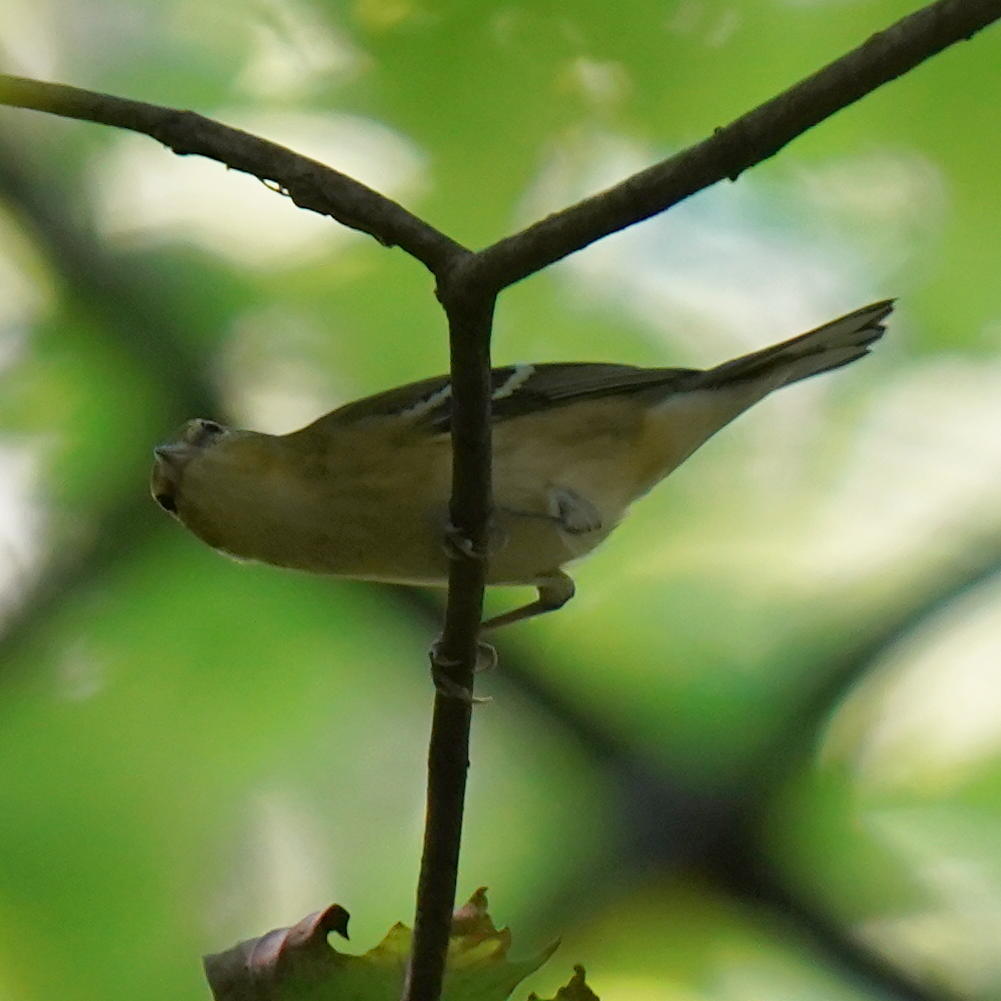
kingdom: Animalia
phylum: Chordata
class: Aves
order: Passeriformes
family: Parulidae
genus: Setophaga
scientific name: Setophaga castanea
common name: Bay-breasted warbler
